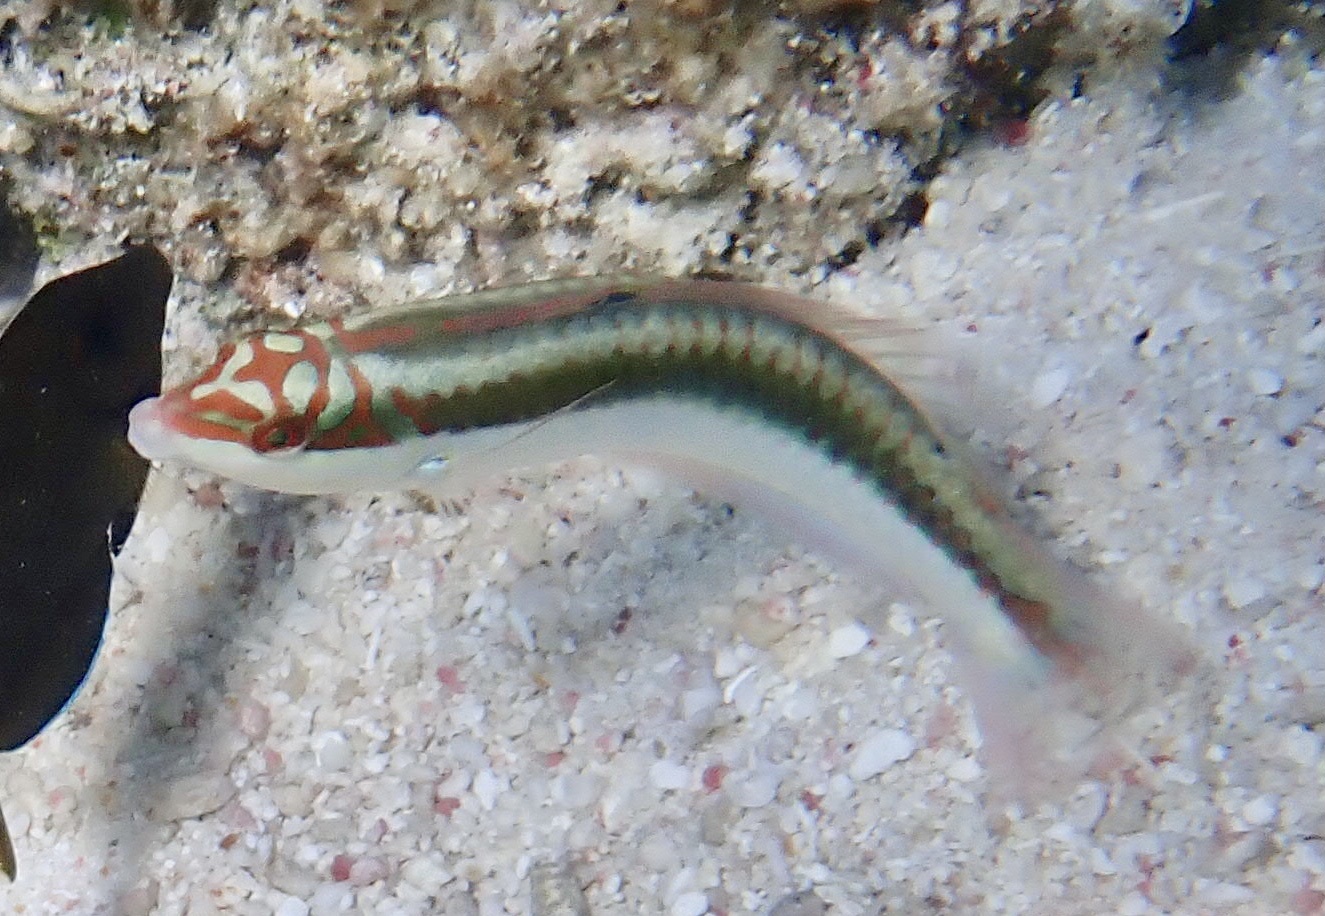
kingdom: Animalia
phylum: Chordata
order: Perciformes
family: Labridae
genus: Halichoeres
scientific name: Halichoeres maculipinna
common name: Clown wrasse
